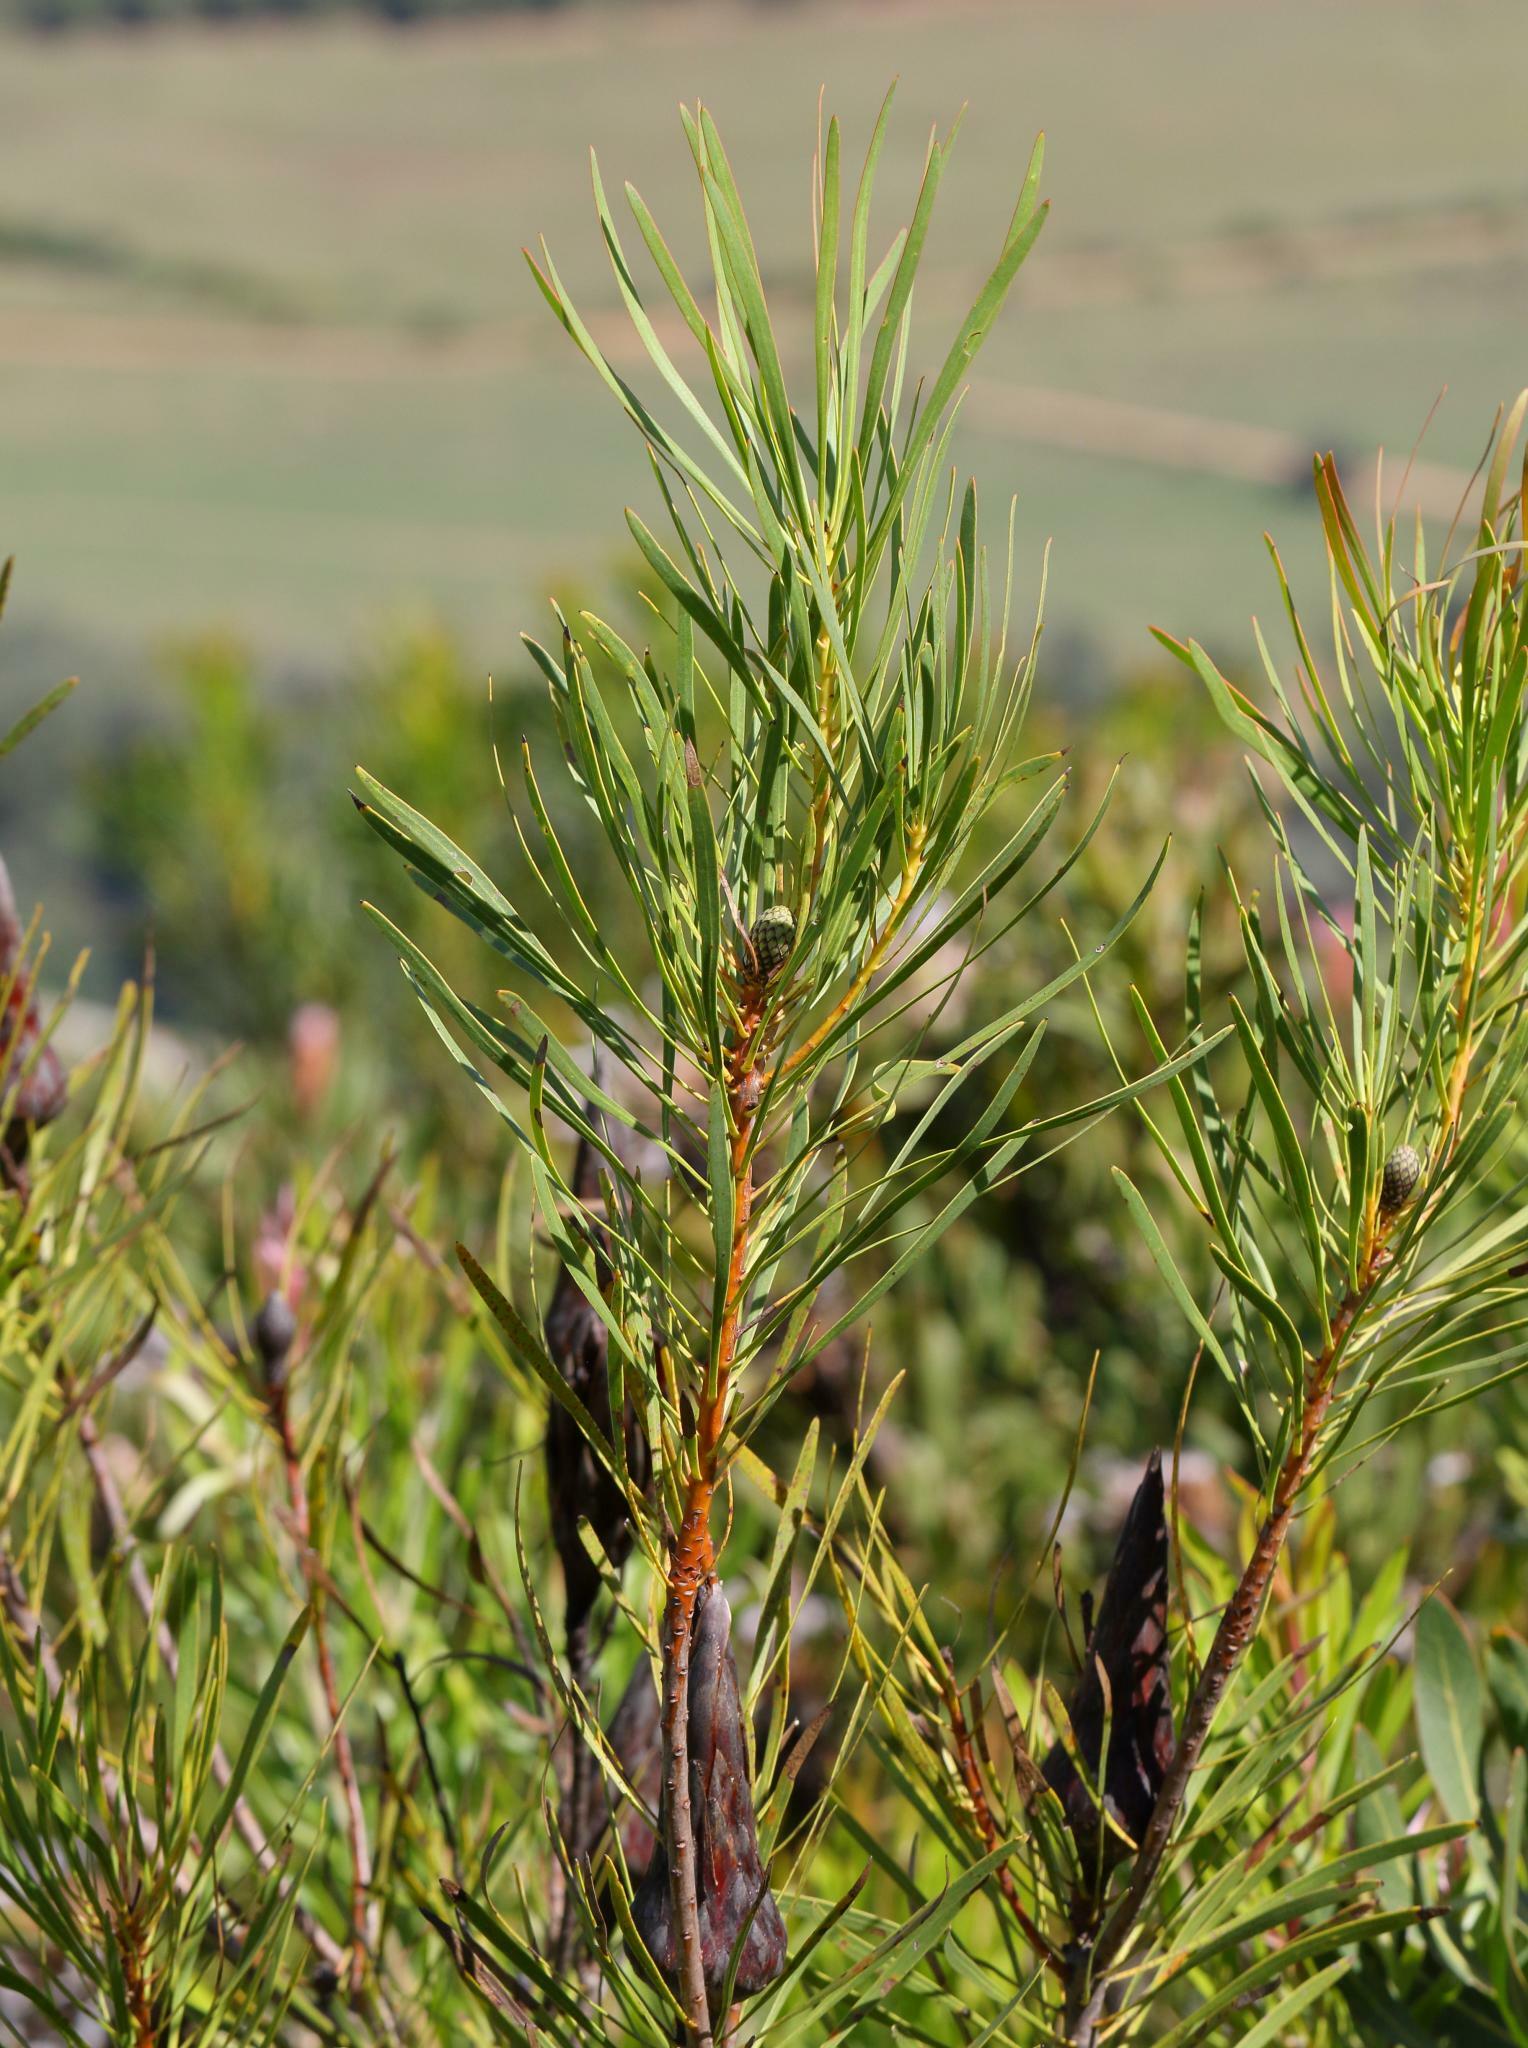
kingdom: Plantae
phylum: Tracheophyta
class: Magnoliopsida
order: Proteales
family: Proteaceae
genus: Protea
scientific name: Protea repens
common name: Sugarbush
